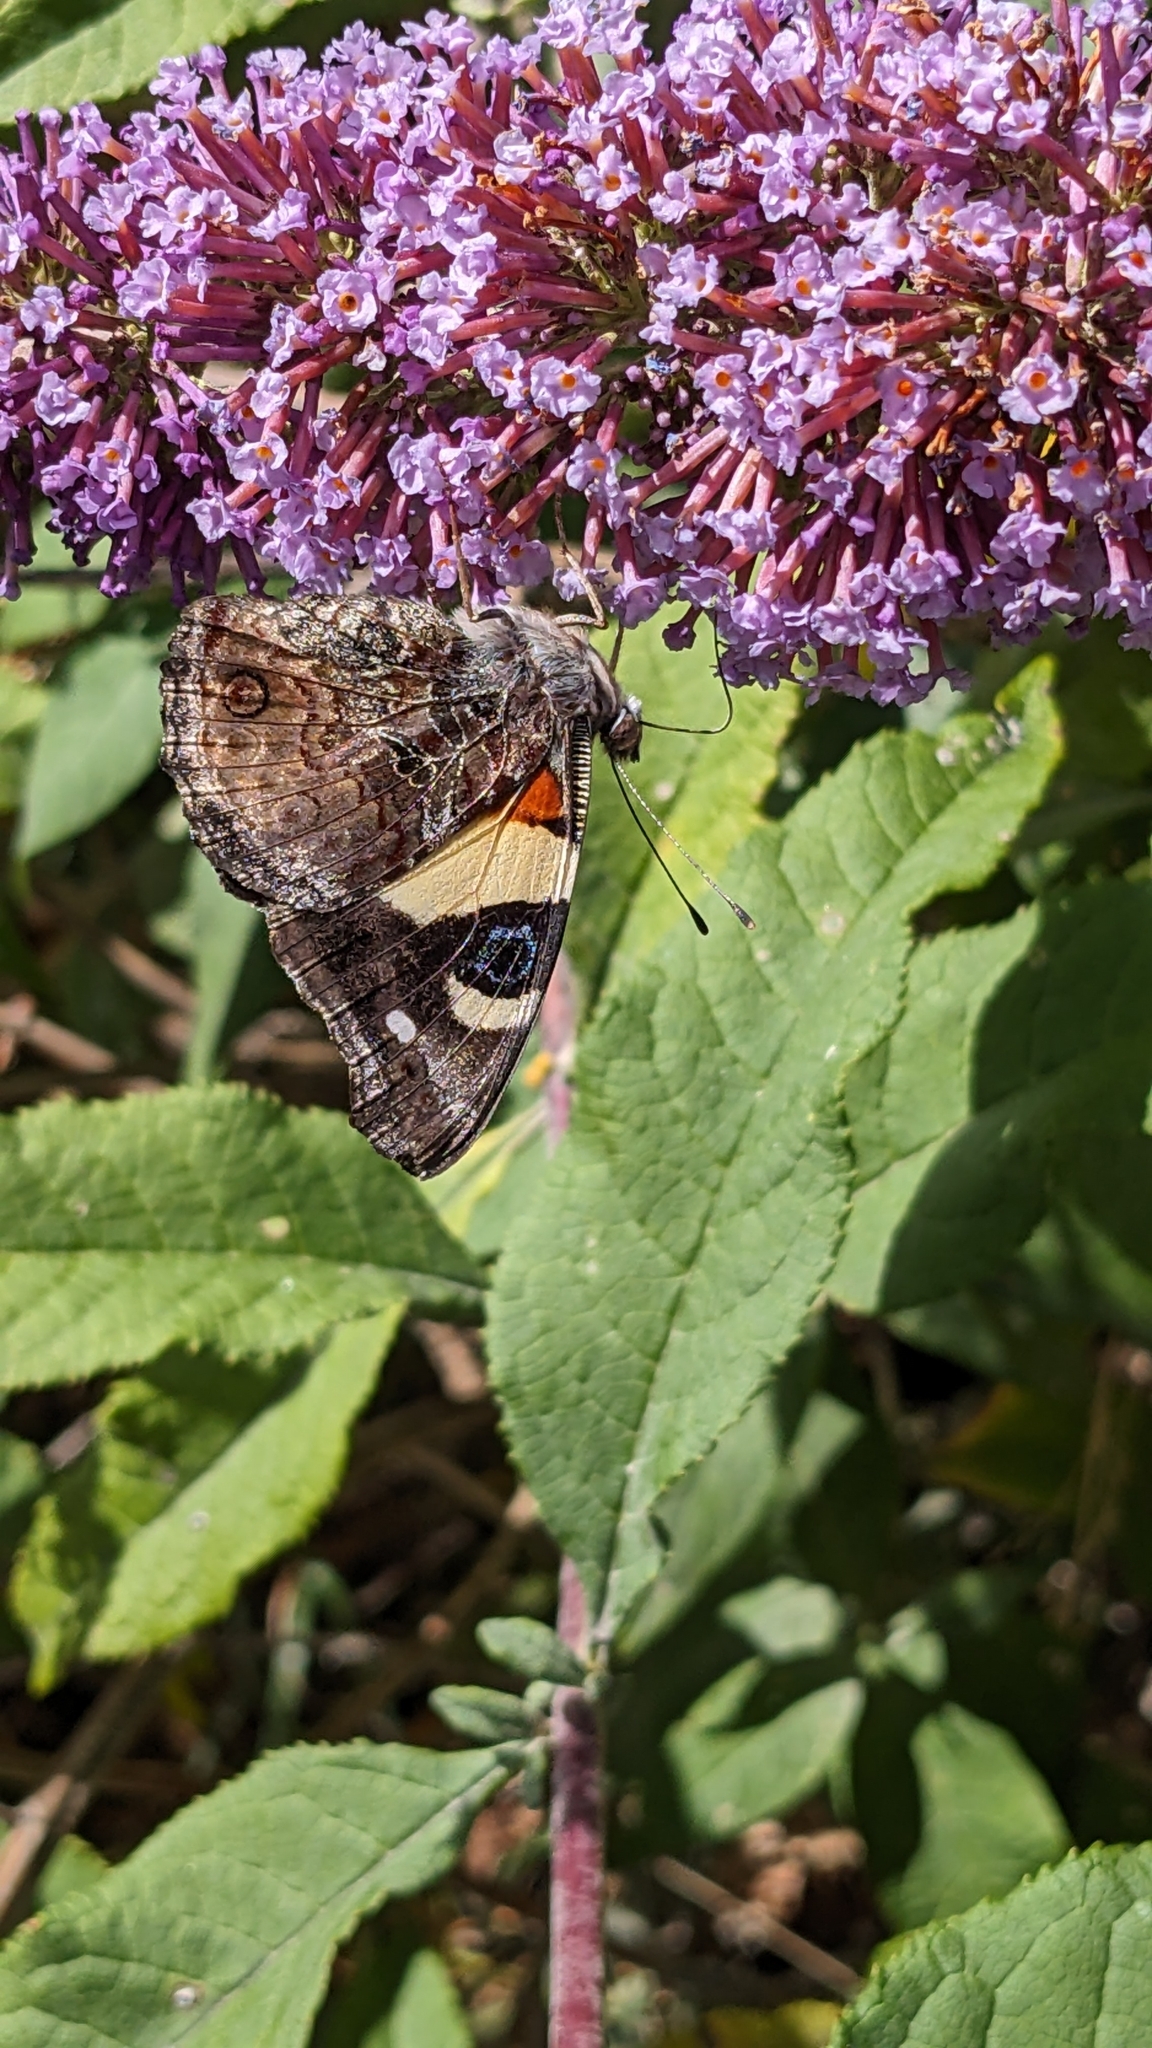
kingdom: Animalia
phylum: Arthropoda
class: Insecta
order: Lepidoptera
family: Nymphalidae
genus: Vanessa
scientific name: Vanessa itea
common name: Yellow admiral
